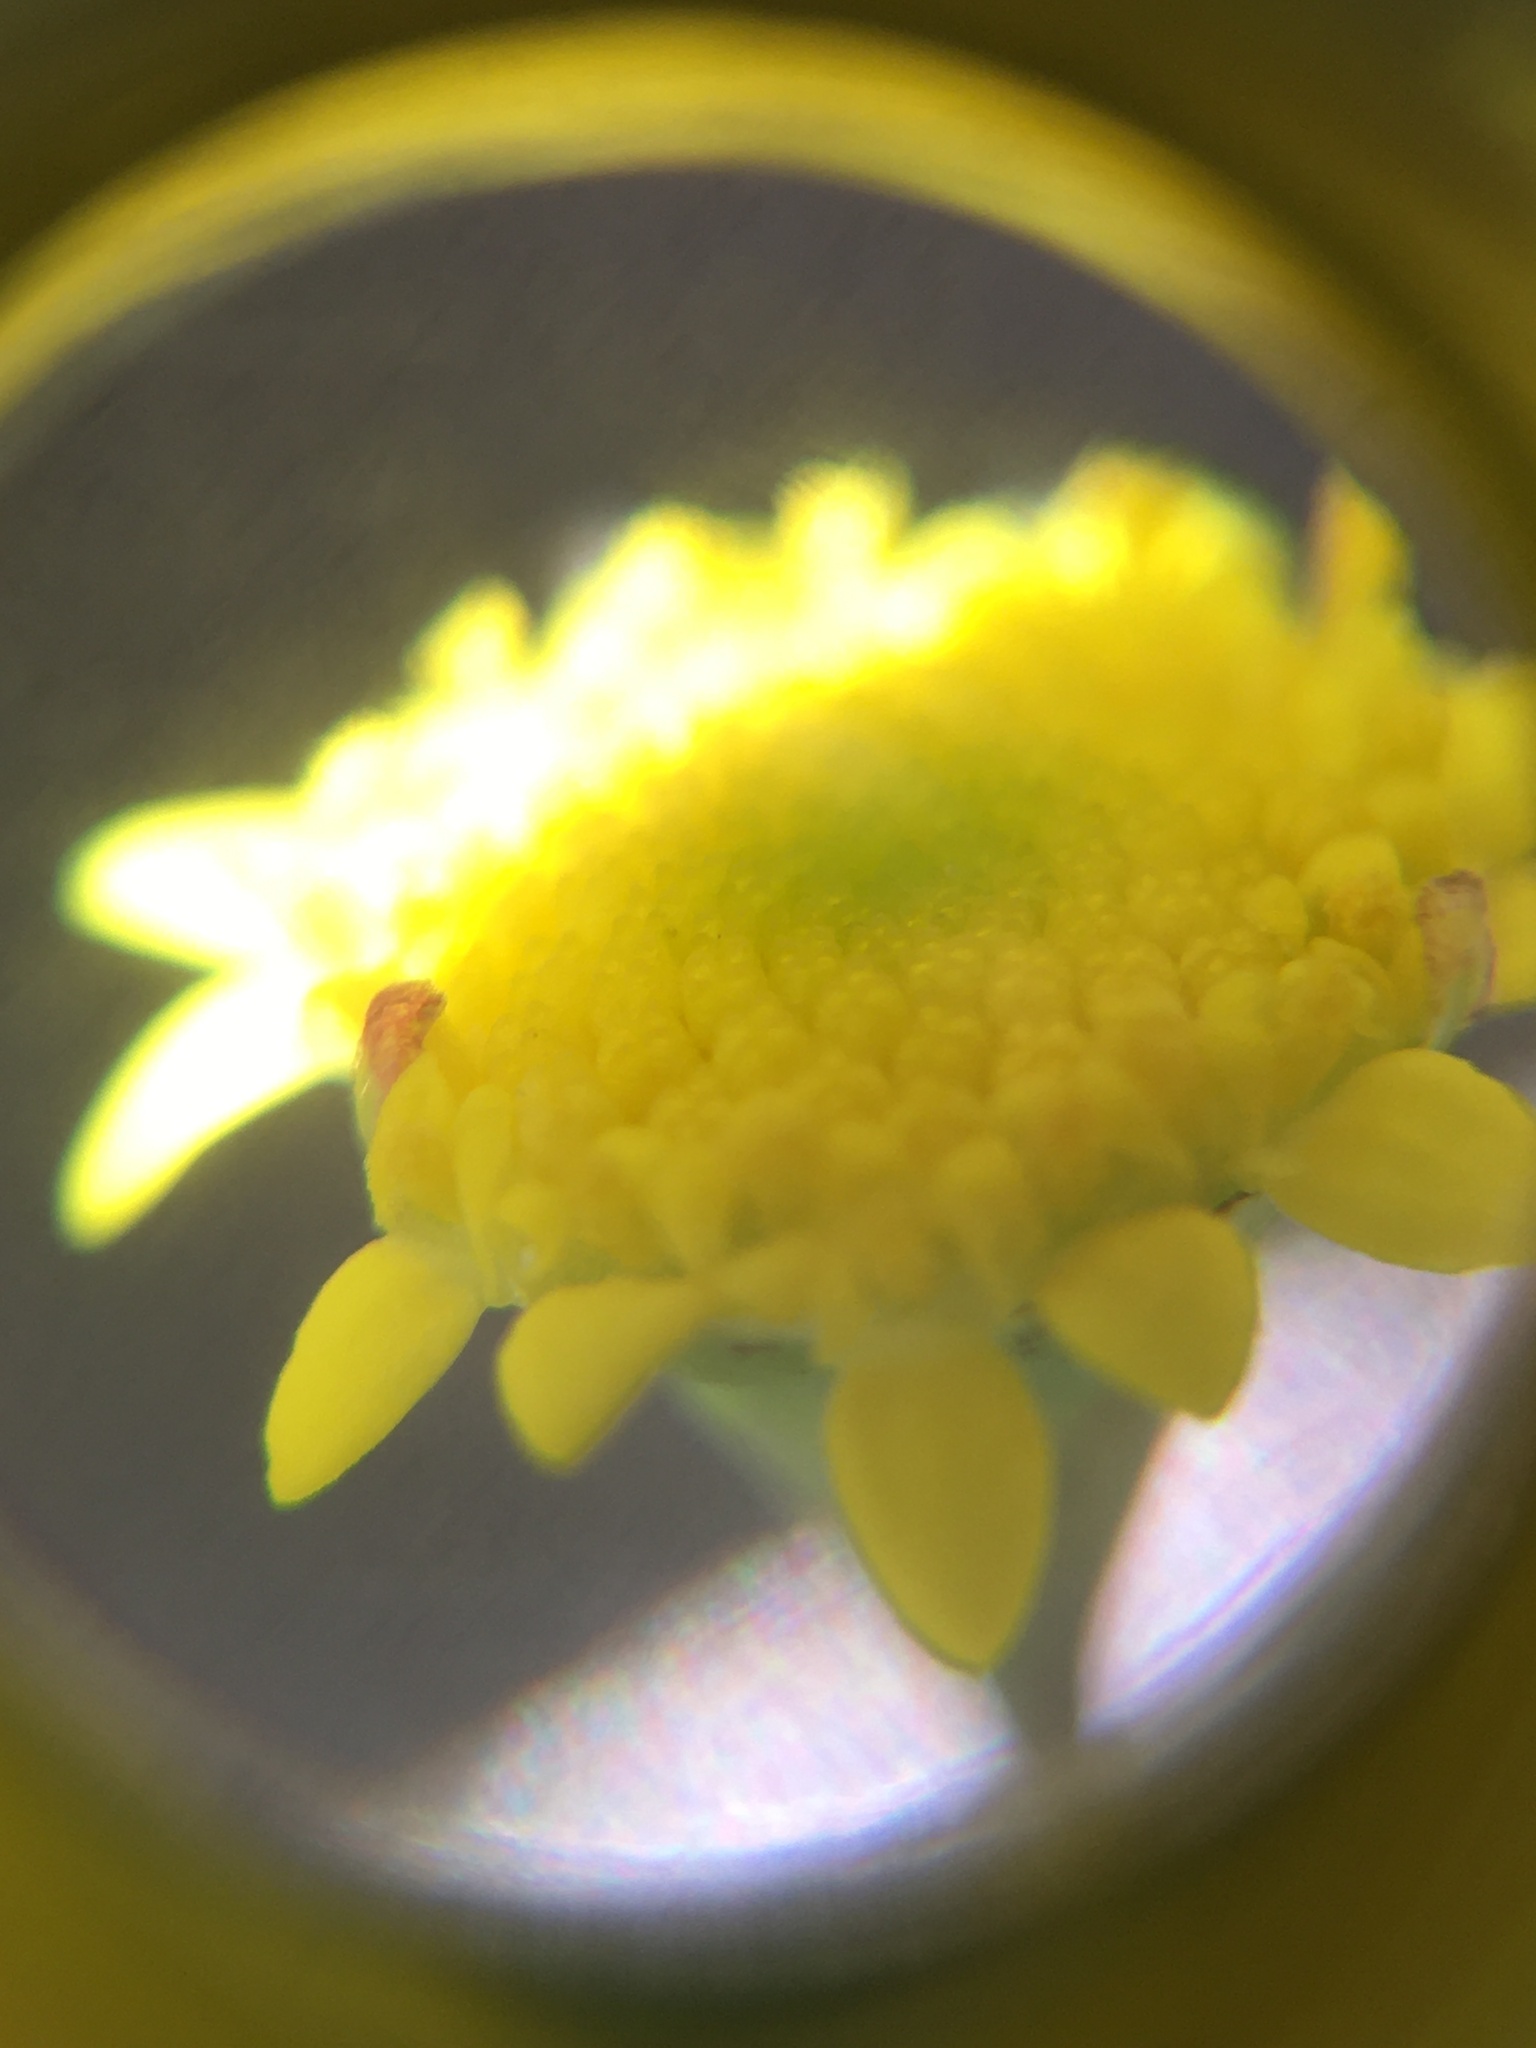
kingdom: Plantae
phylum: Tracheophyta
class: Magnoliopsida
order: Asterales
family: Asteraceae
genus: Cotula
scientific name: Cotula pruinosa
